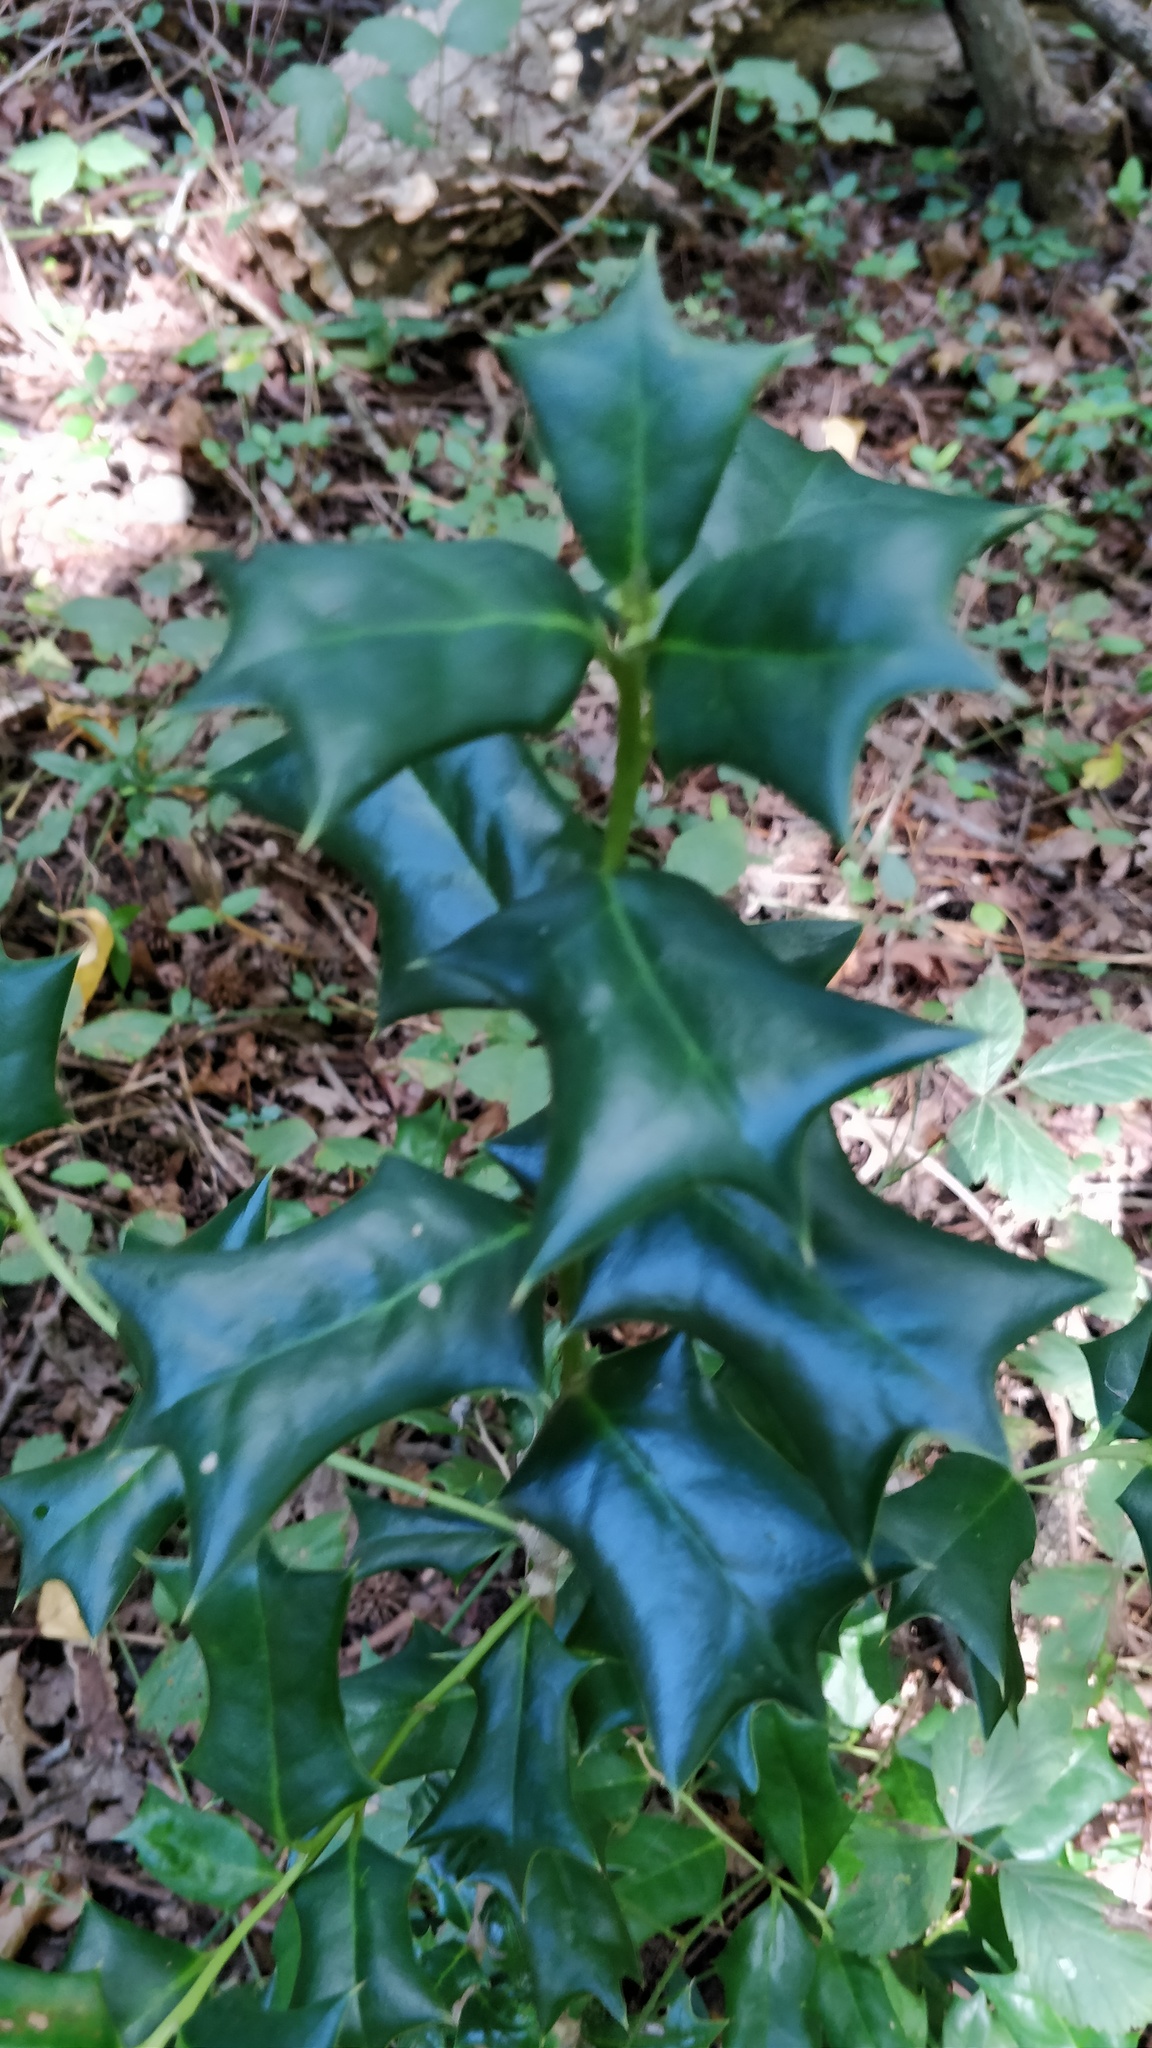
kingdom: Plantae
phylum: Tracheophyta
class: Magnoliopsida
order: Aquifoliales
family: Aquifoliaceae
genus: Ilex
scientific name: Ilex cornuta
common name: Chinese holly
